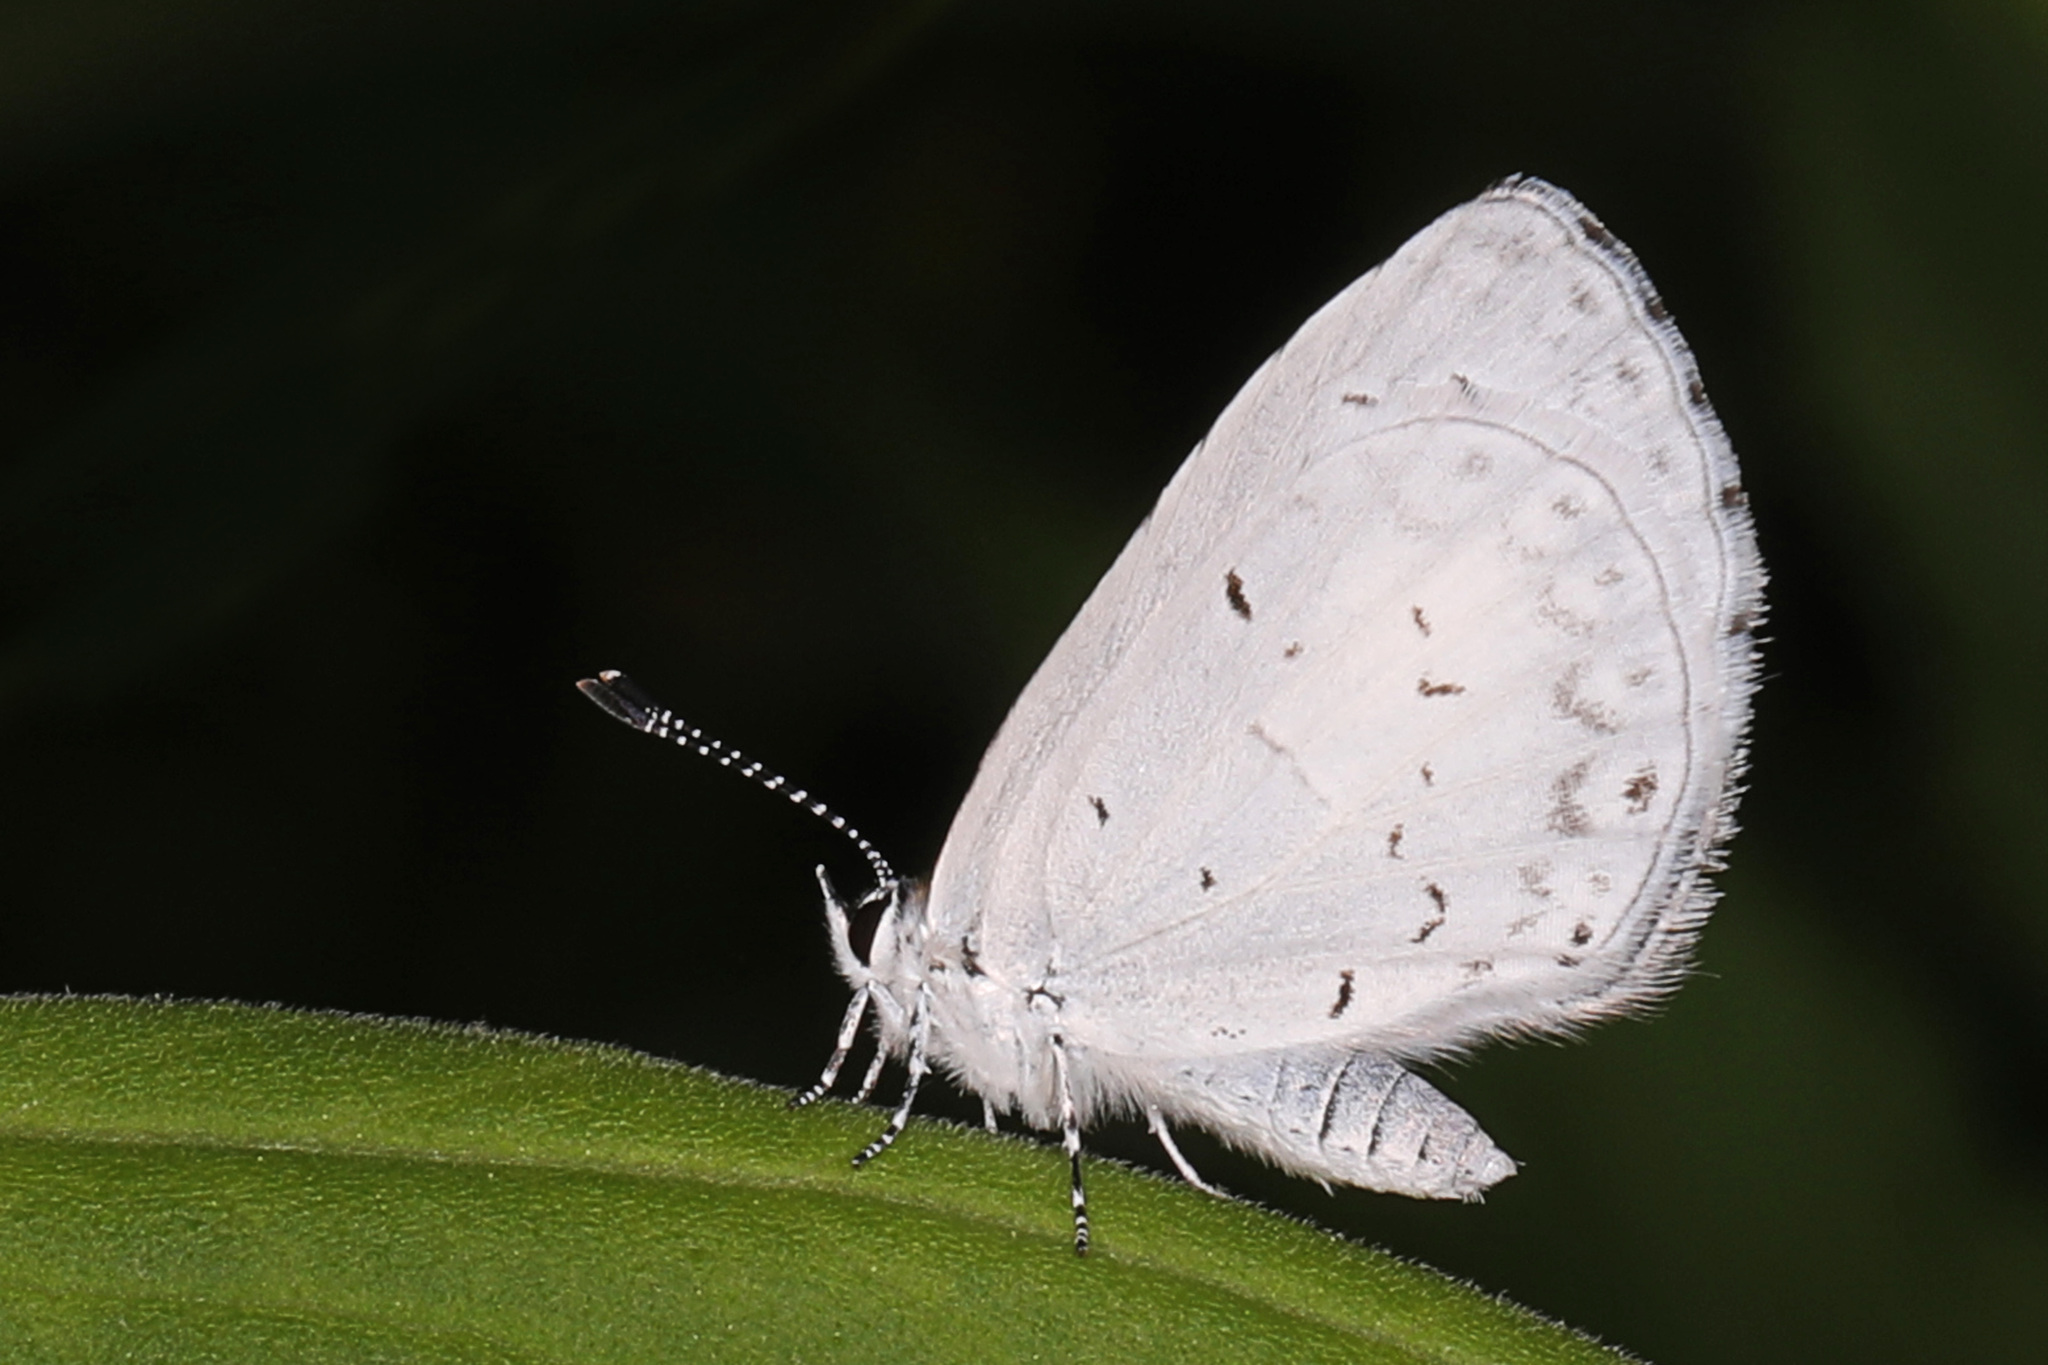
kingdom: Animalia
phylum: Arthropoda
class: Insecta
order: Lepidoptera
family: Lycaenidae
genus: Cyaniris
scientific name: Cyaniris neglecta
